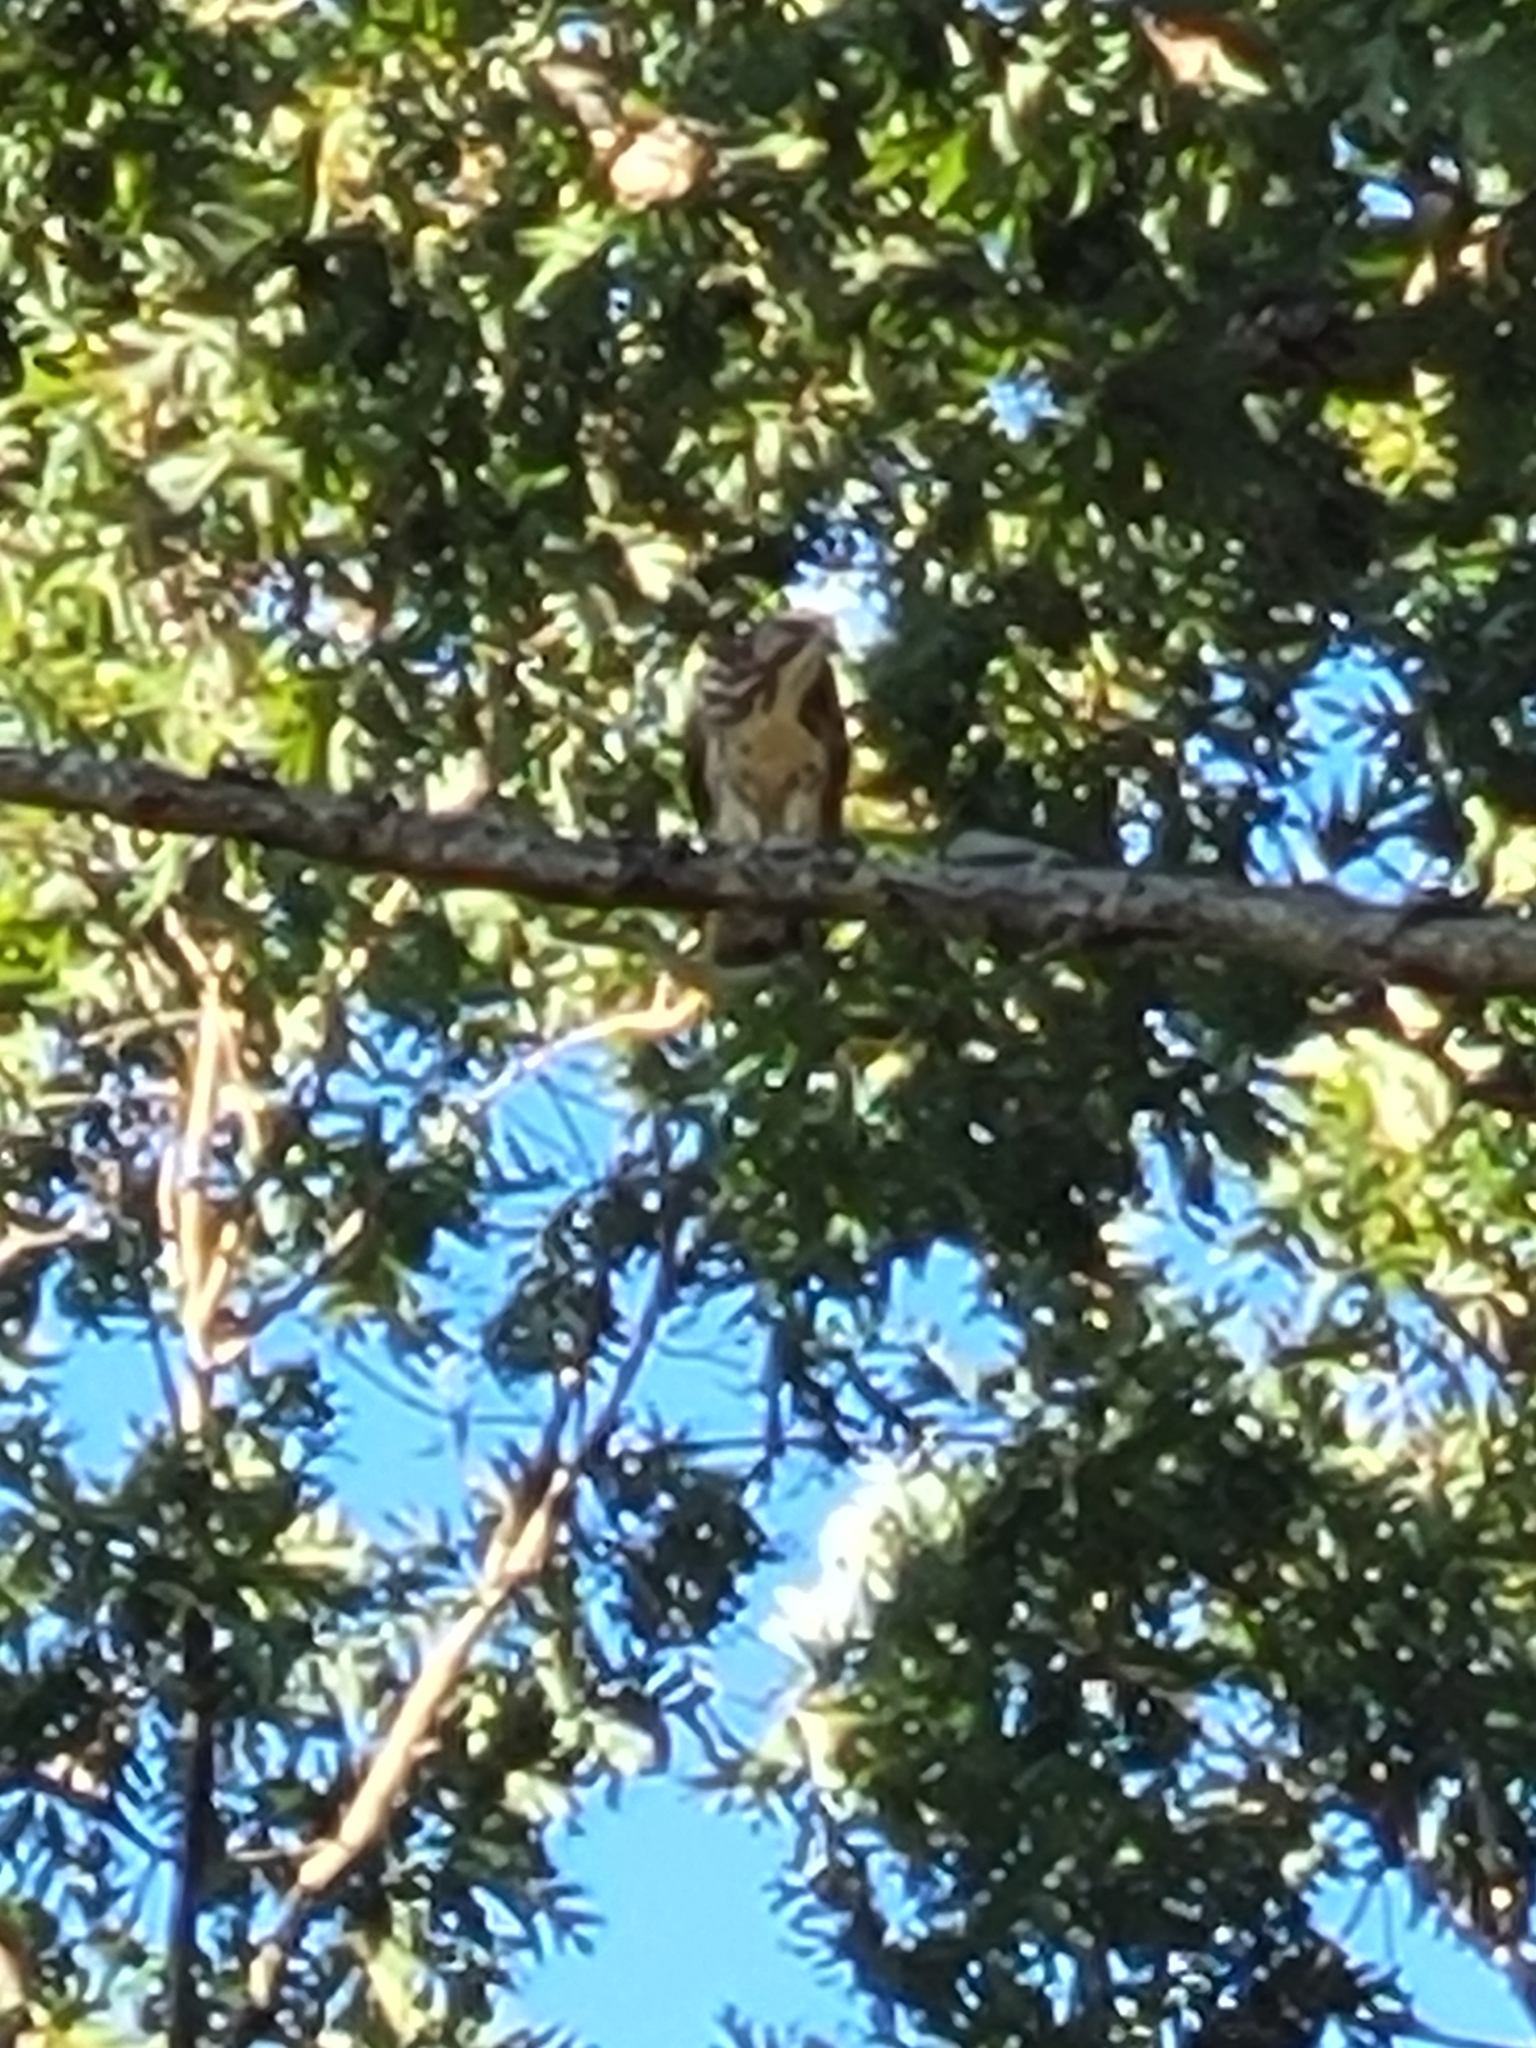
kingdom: Animalia
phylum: Chordata
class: Aves
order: Accipitriformes
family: Accipitridae
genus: Buteo
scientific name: Buteo platypterus
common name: Broad-winged hawk
